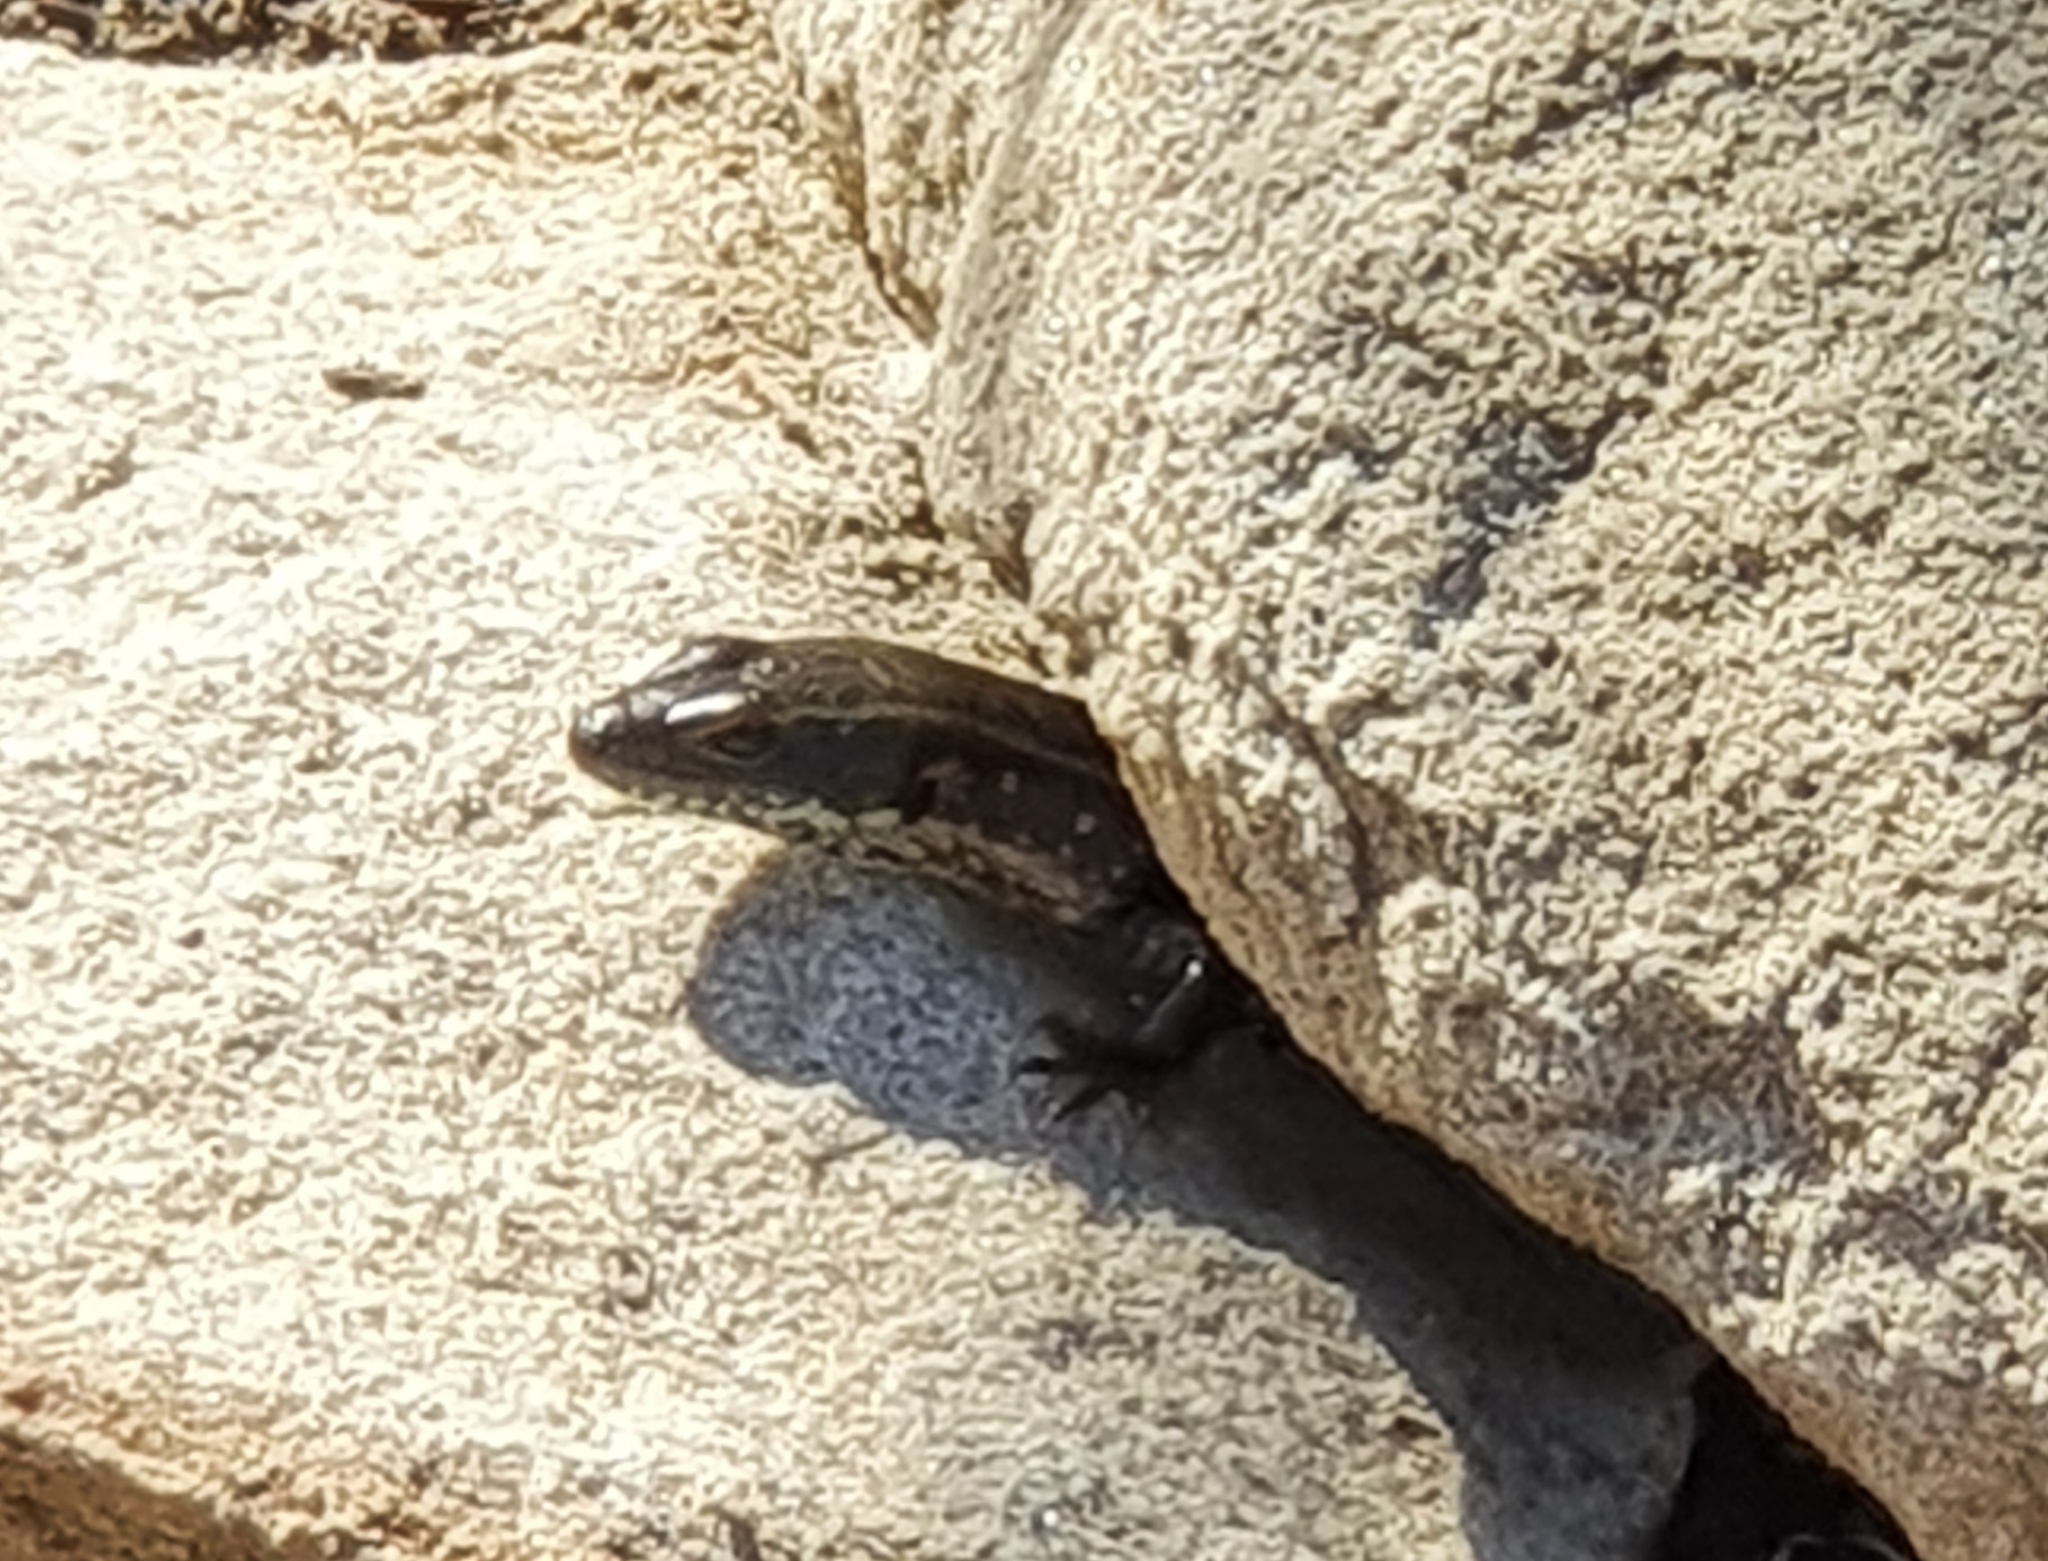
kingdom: Animalia
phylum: Chordata
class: Squamata
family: Scincidae
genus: Eulamprus
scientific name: Eulamprus quoyii
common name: Eastern water skink
